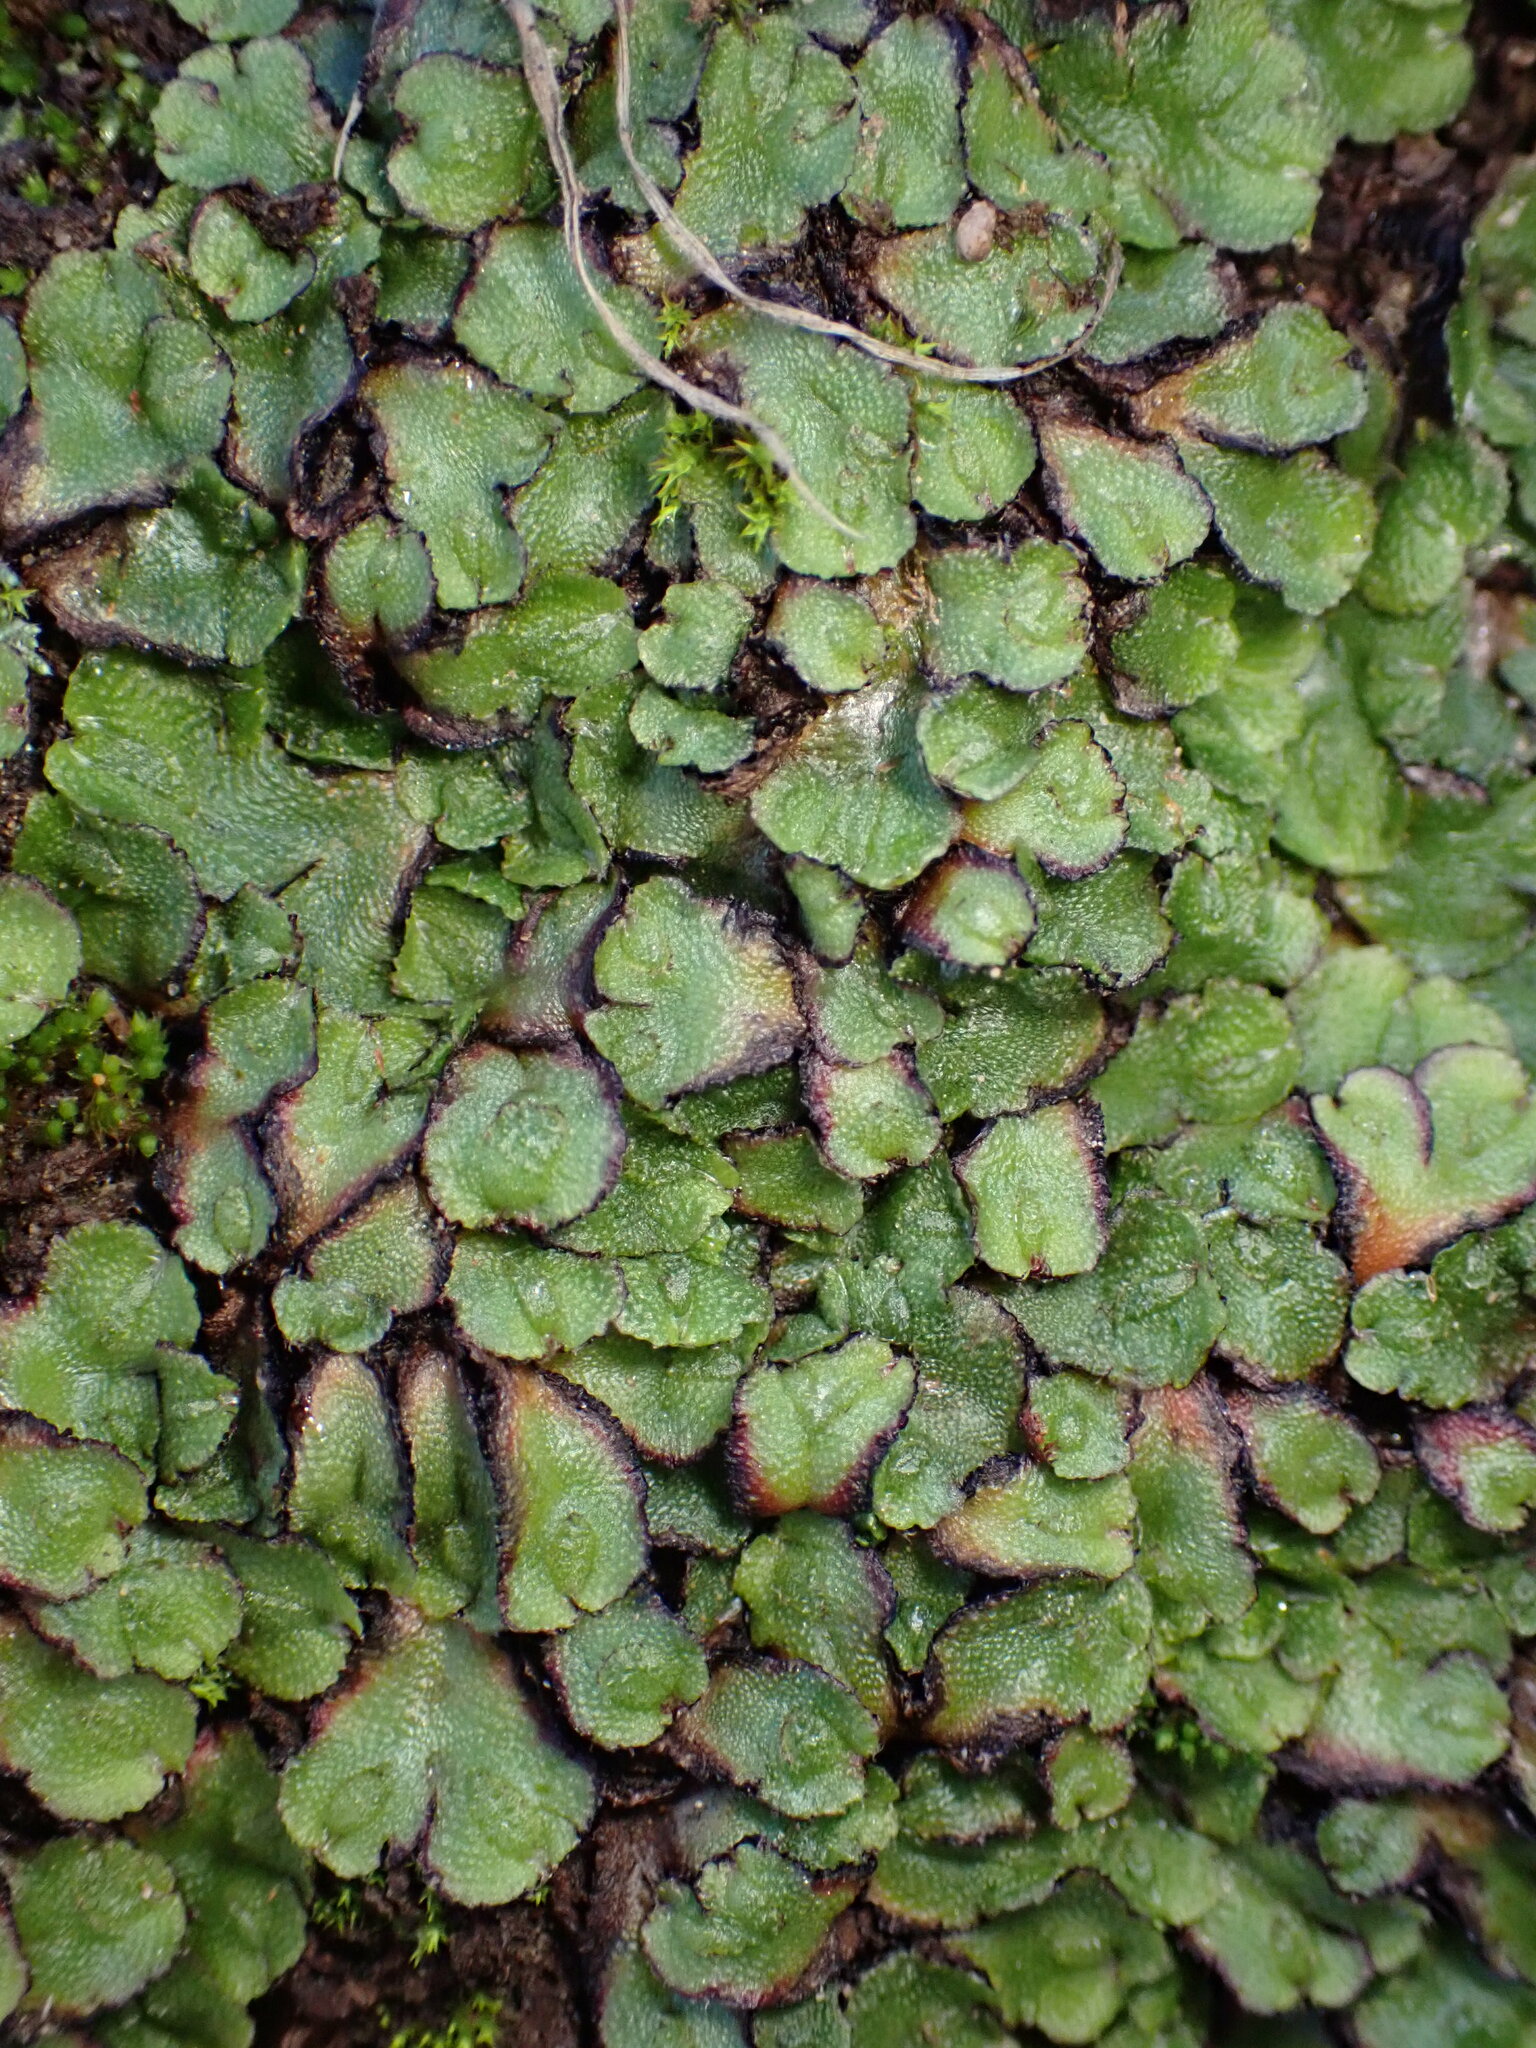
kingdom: Plantae
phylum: Marchantiophyta
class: Marchantiopsida
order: Marchantiales
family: Aytoniaceae
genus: Asterella
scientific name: Asterella californica
